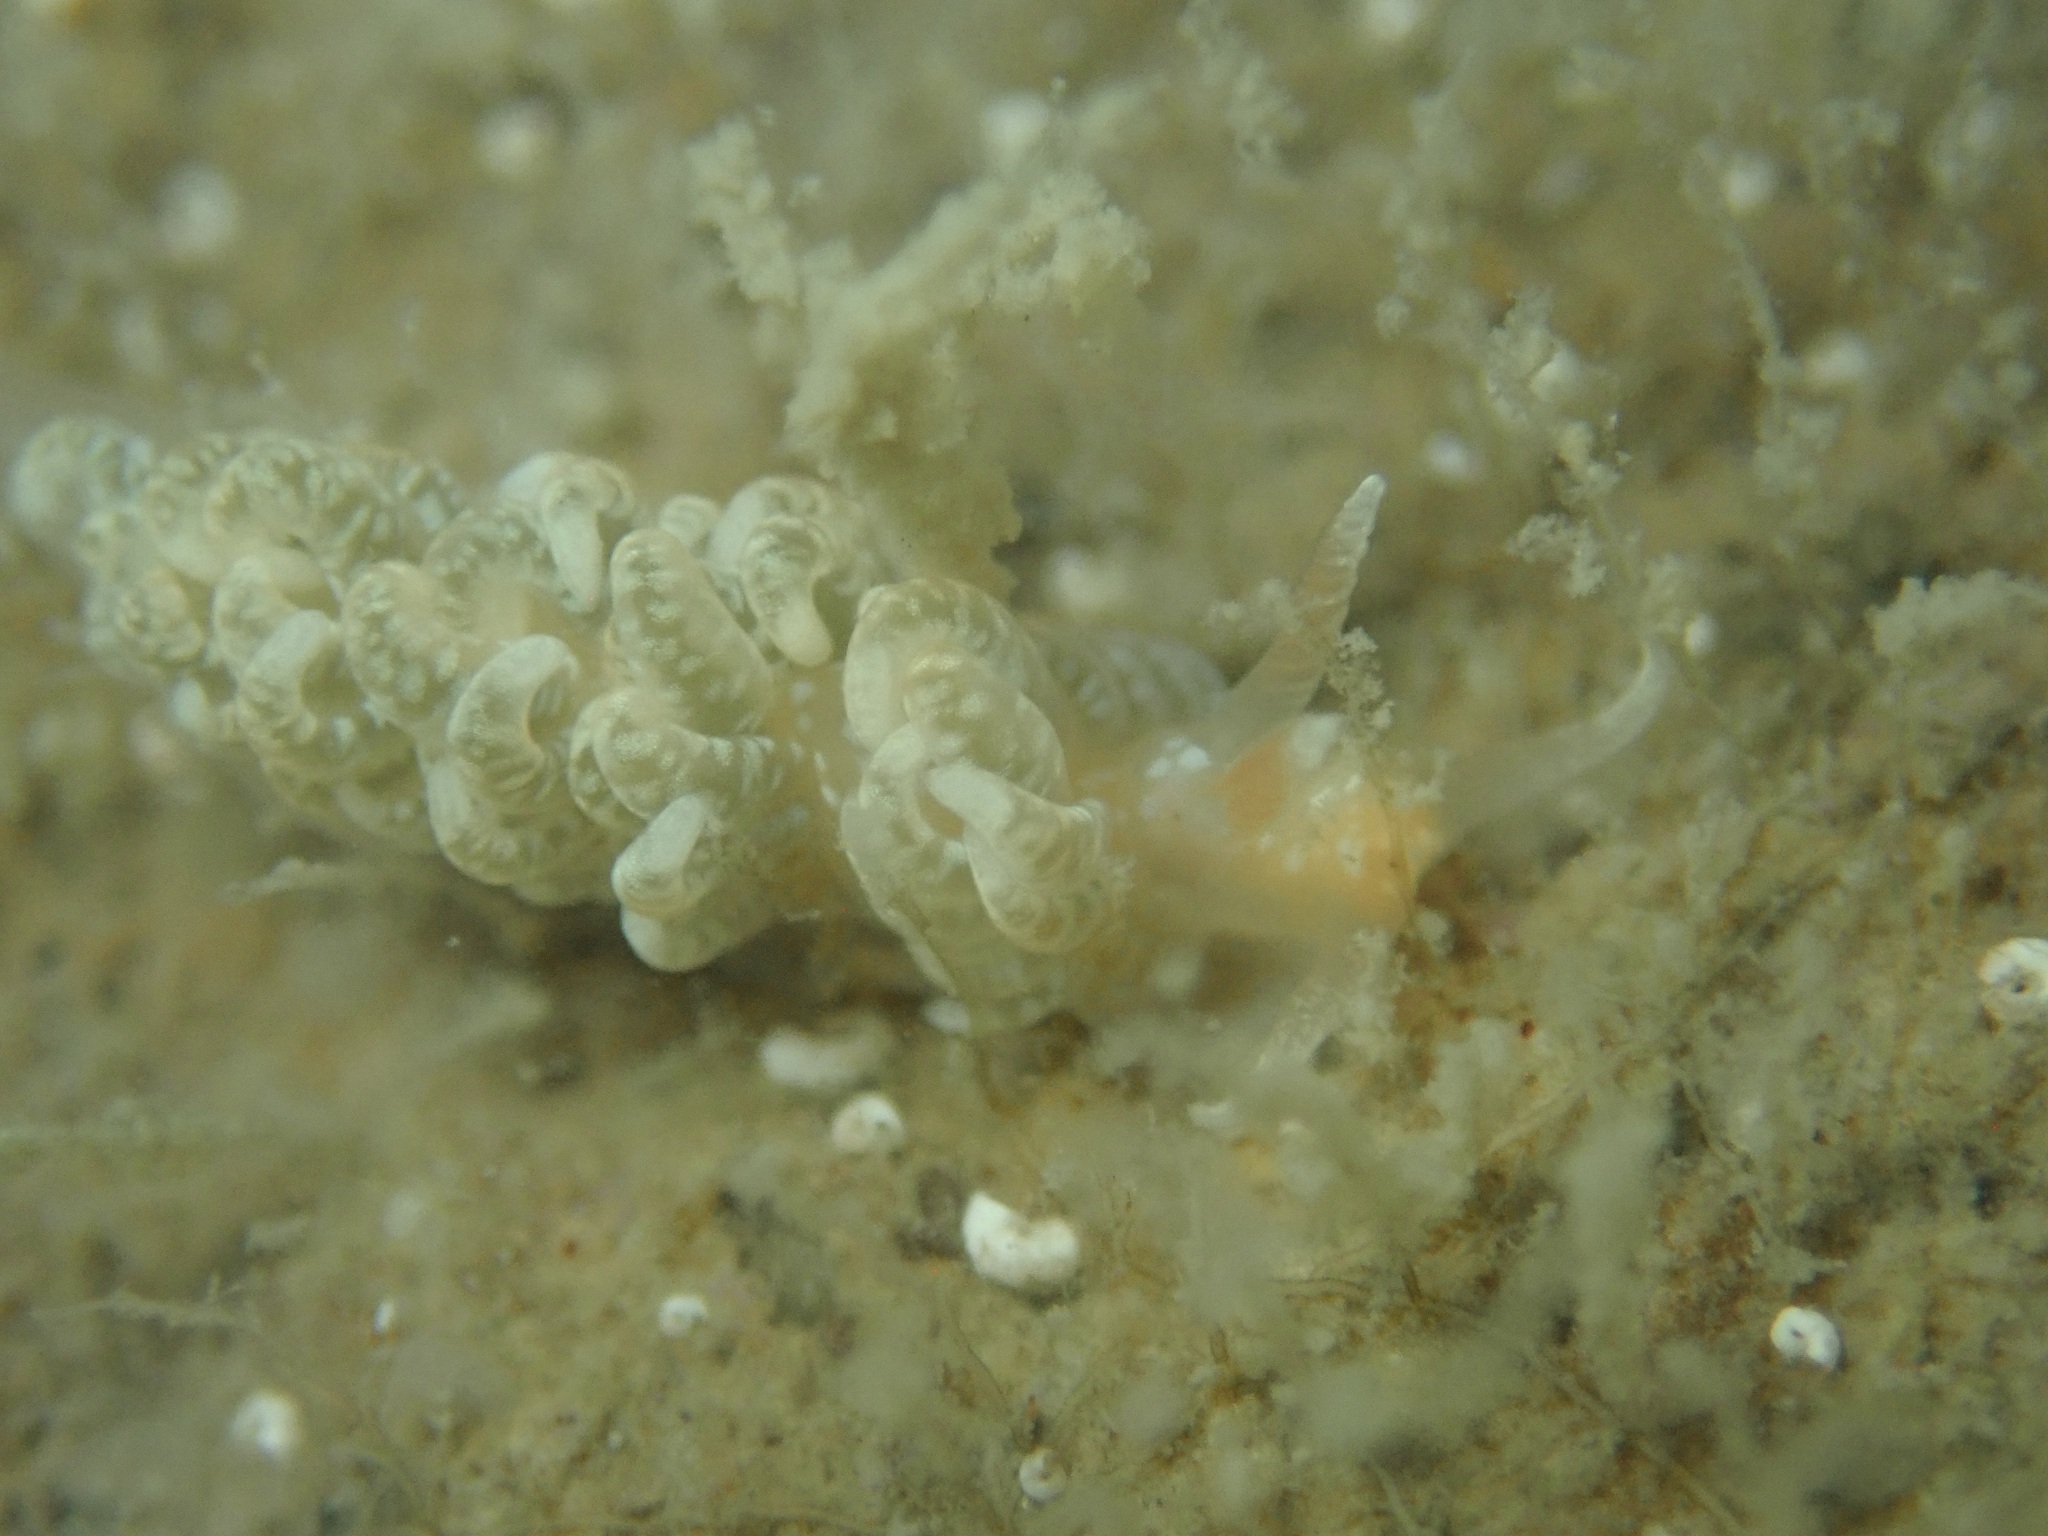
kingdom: Animalia
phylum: Mollusca
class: Gastropoda
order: Nudibranchia
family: Aeolidiidae
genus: Spurilla
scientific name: Spurilla braziliana
